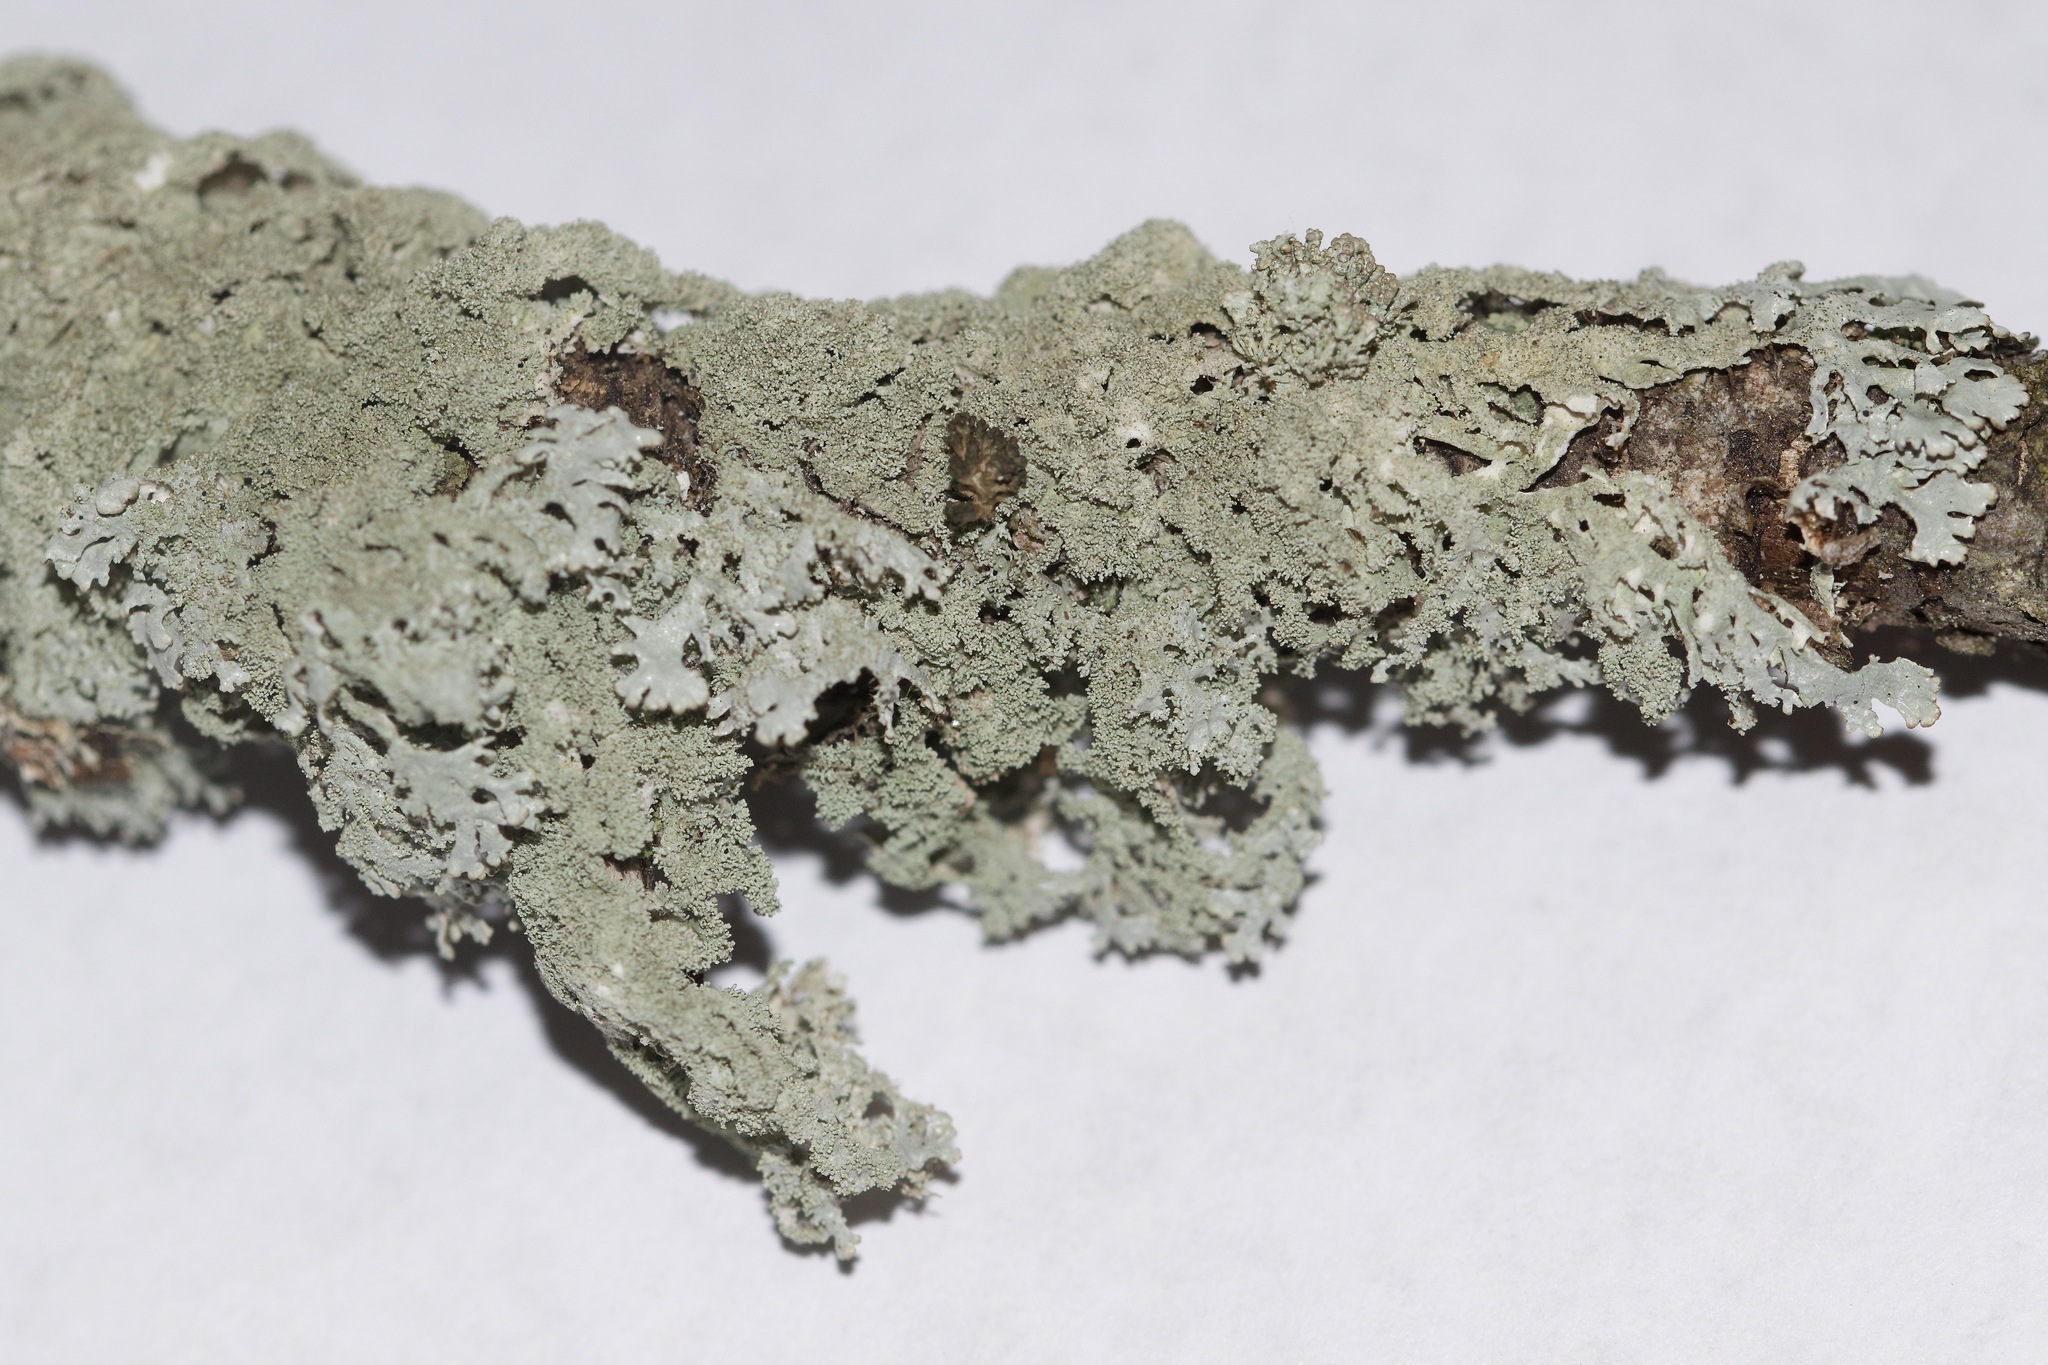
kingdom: Fungi
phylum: Ascomycota
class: Lecanoromycetes
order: Lecanorales
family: Parmeliaceae
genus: Imshaugia
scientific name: Imshaugia aleurites
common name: Salted starburst lichen
